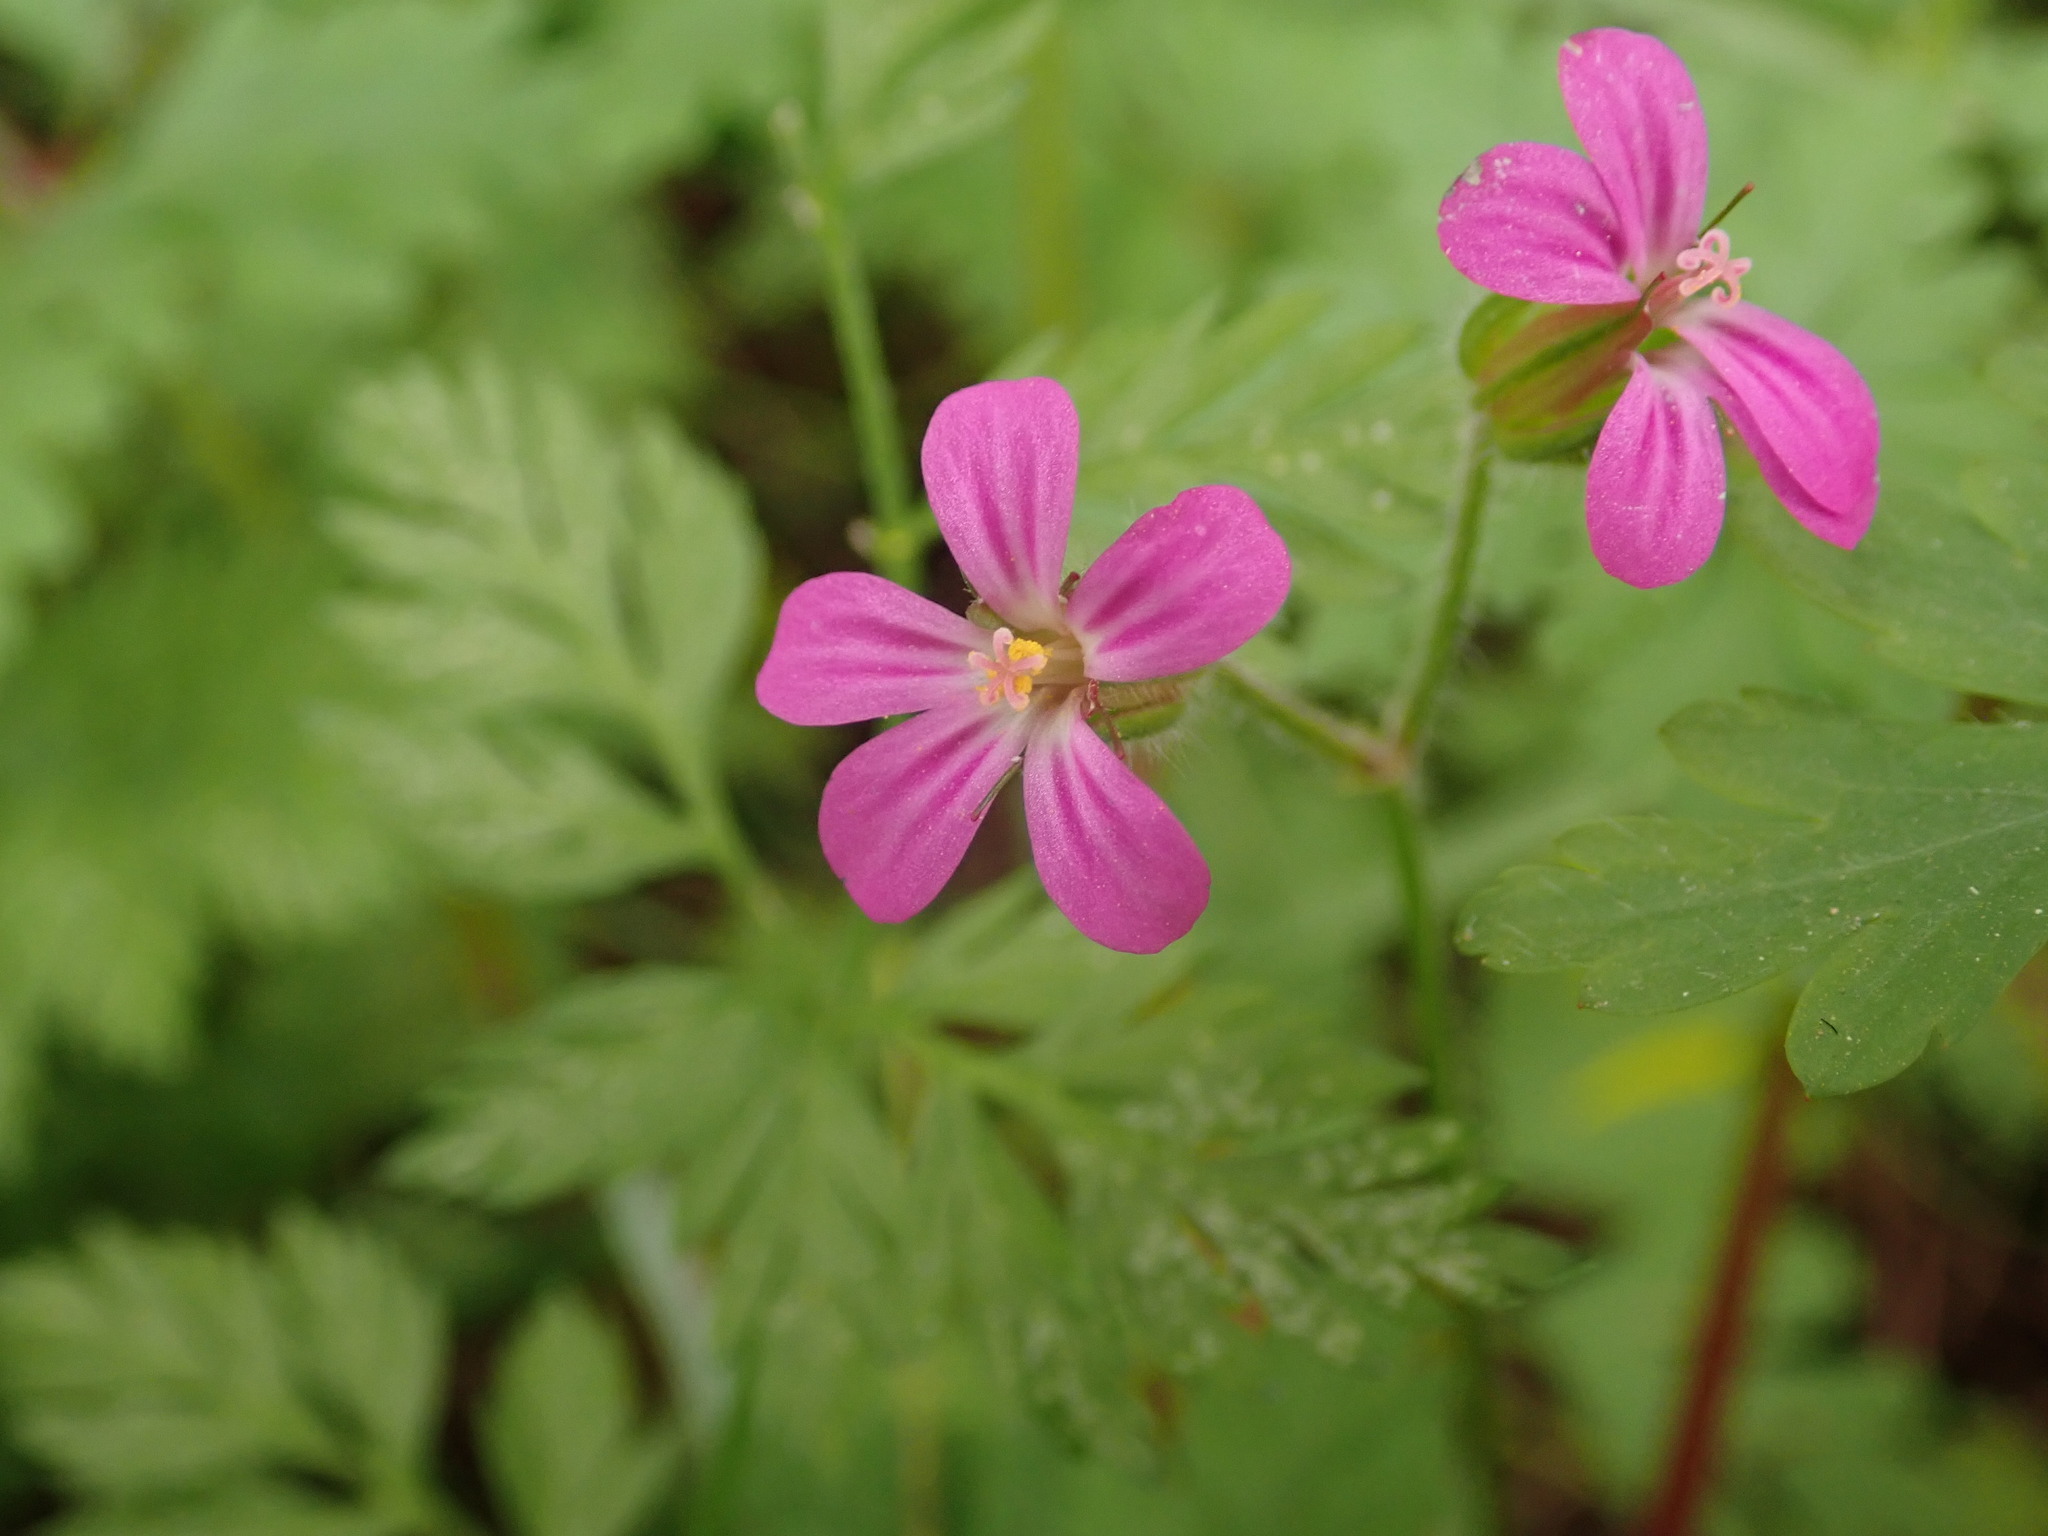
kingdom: Plantae
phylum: Tracheophyta
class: Magnoliopsida
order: Geraniales
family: Geraniaceae
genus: Geranium
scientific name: Geranium purpureum
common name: Little-robin
